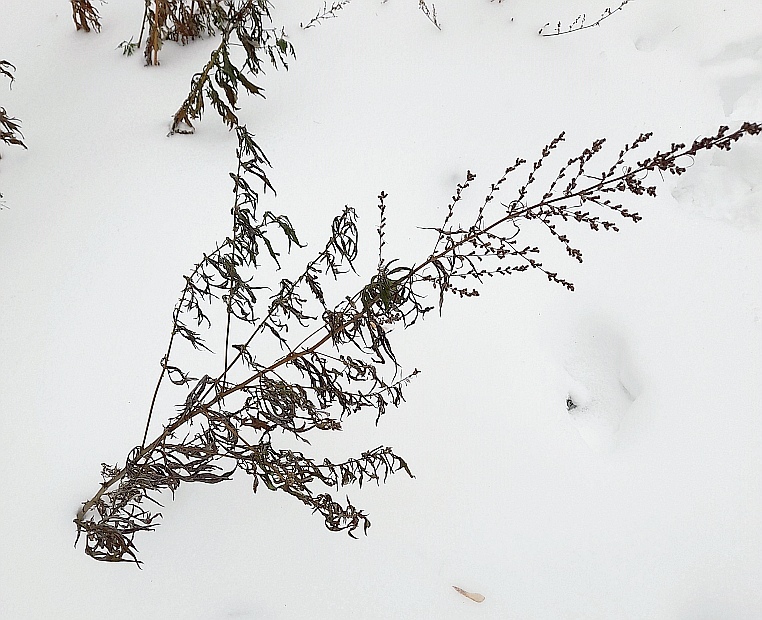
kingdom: Plantae
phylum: Tracheophyta
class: Magnoliopsida
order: Asterales
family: Asteraceae
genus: Artemisia
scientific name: Artemisia vulgaris
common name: Mugwort
